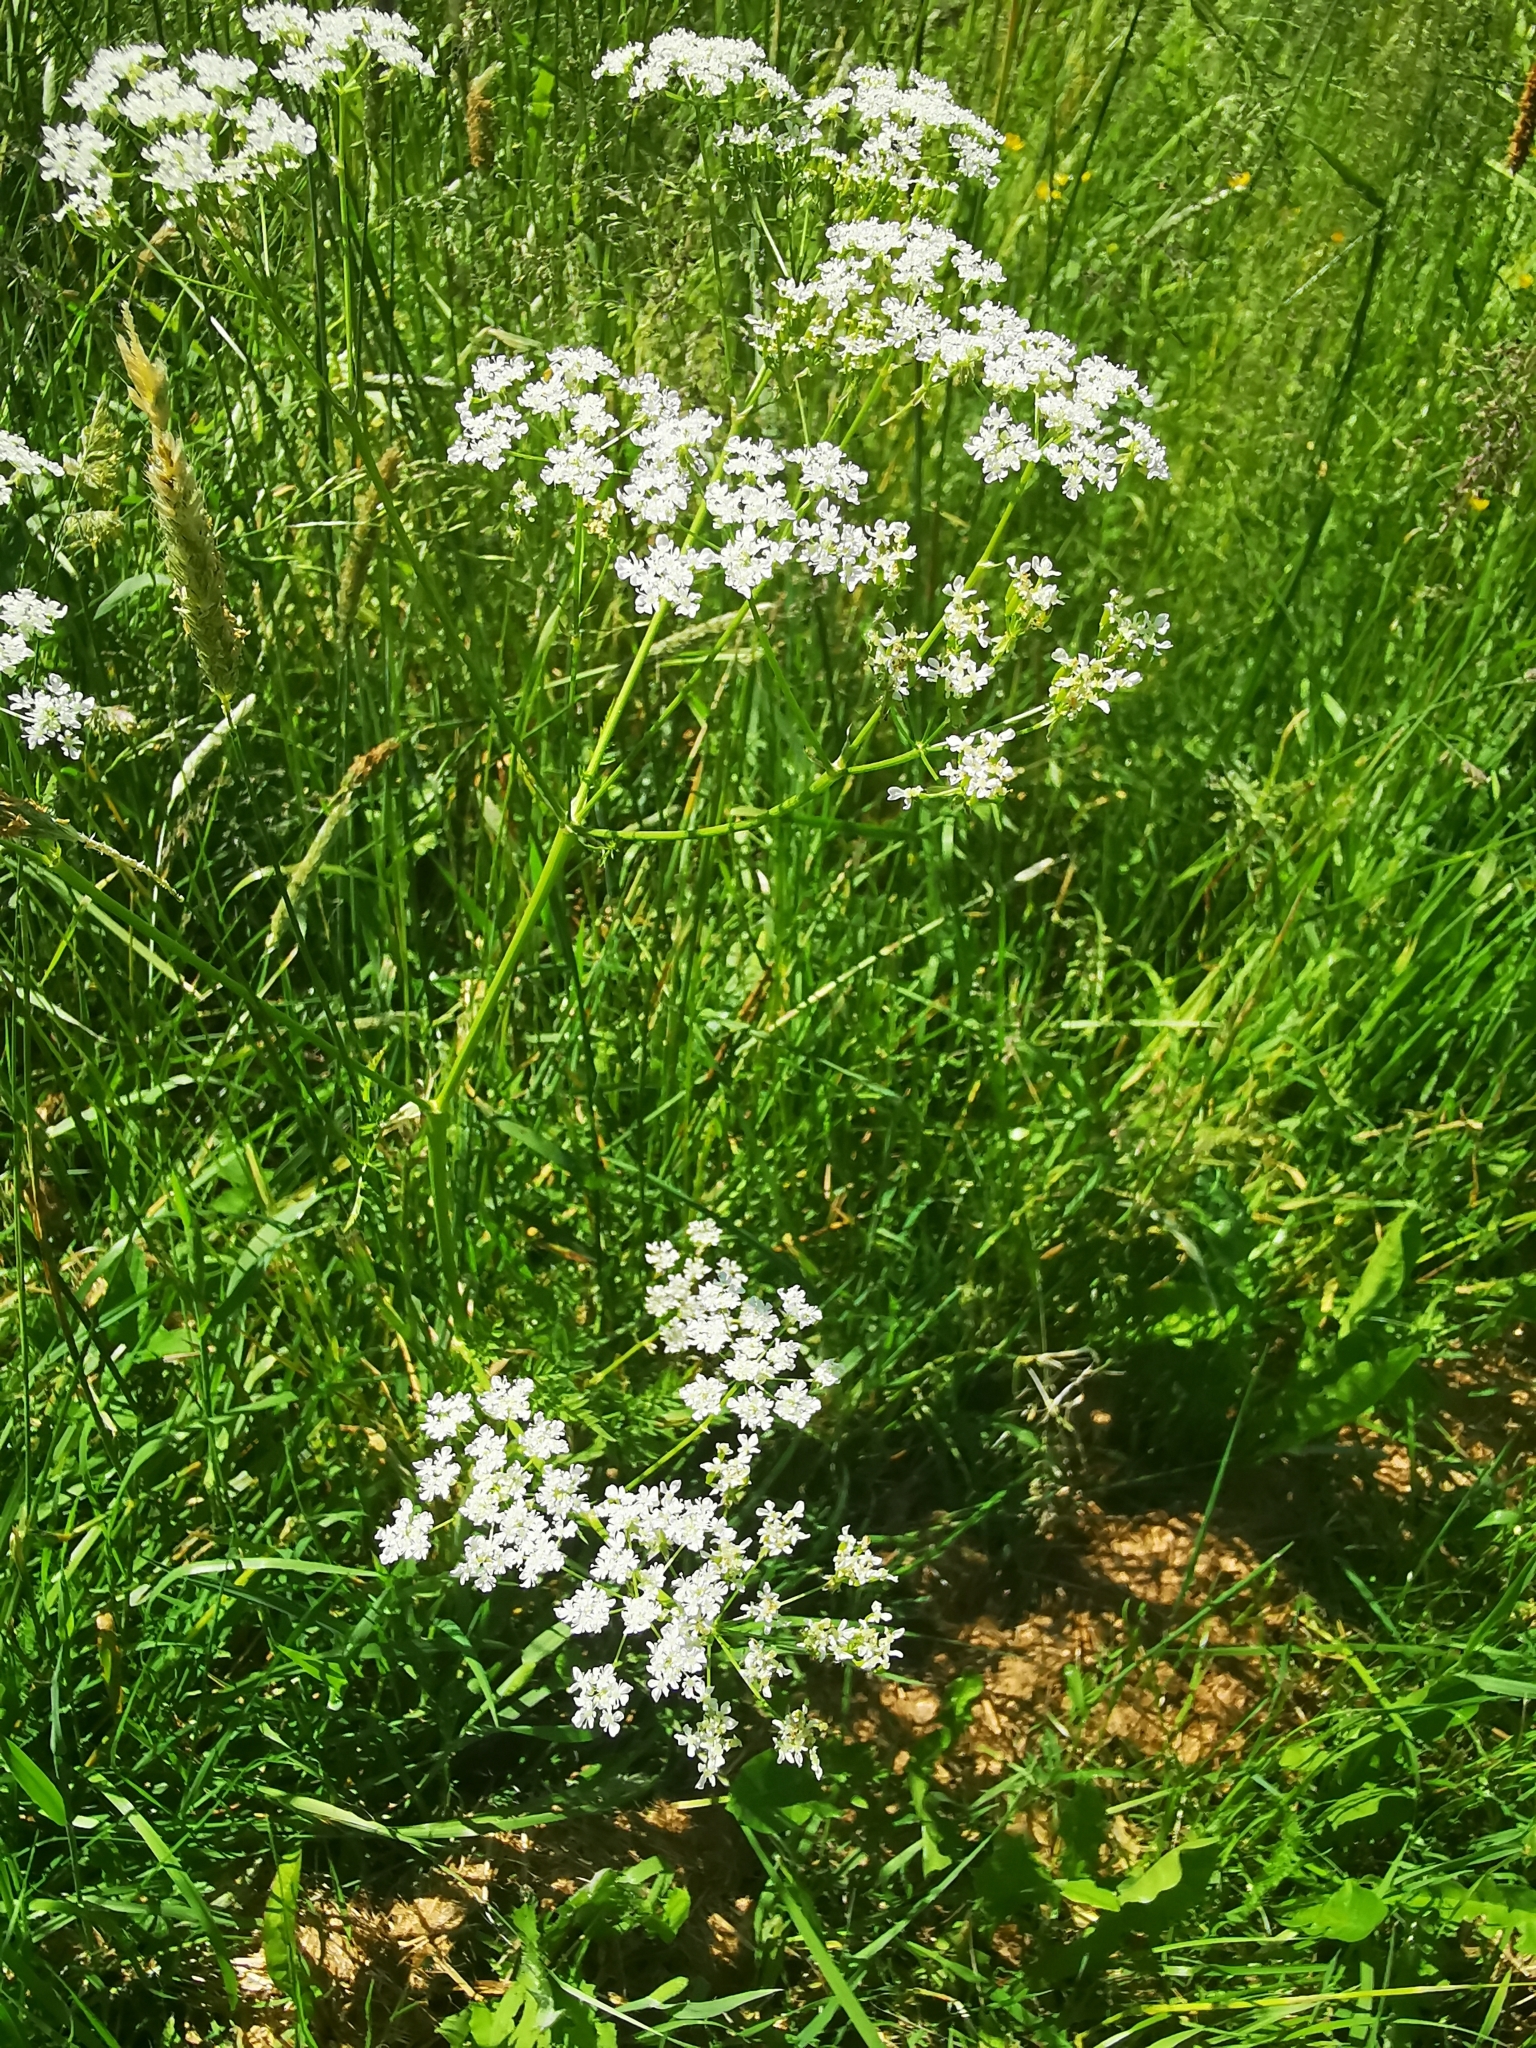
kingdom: Plantae
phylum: Tracheophyta
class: Magnoliopsida
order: Apiales
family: Apiaceae
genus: Anthriscus
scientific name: Anthriscus sylvestris
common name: Cow parsley
